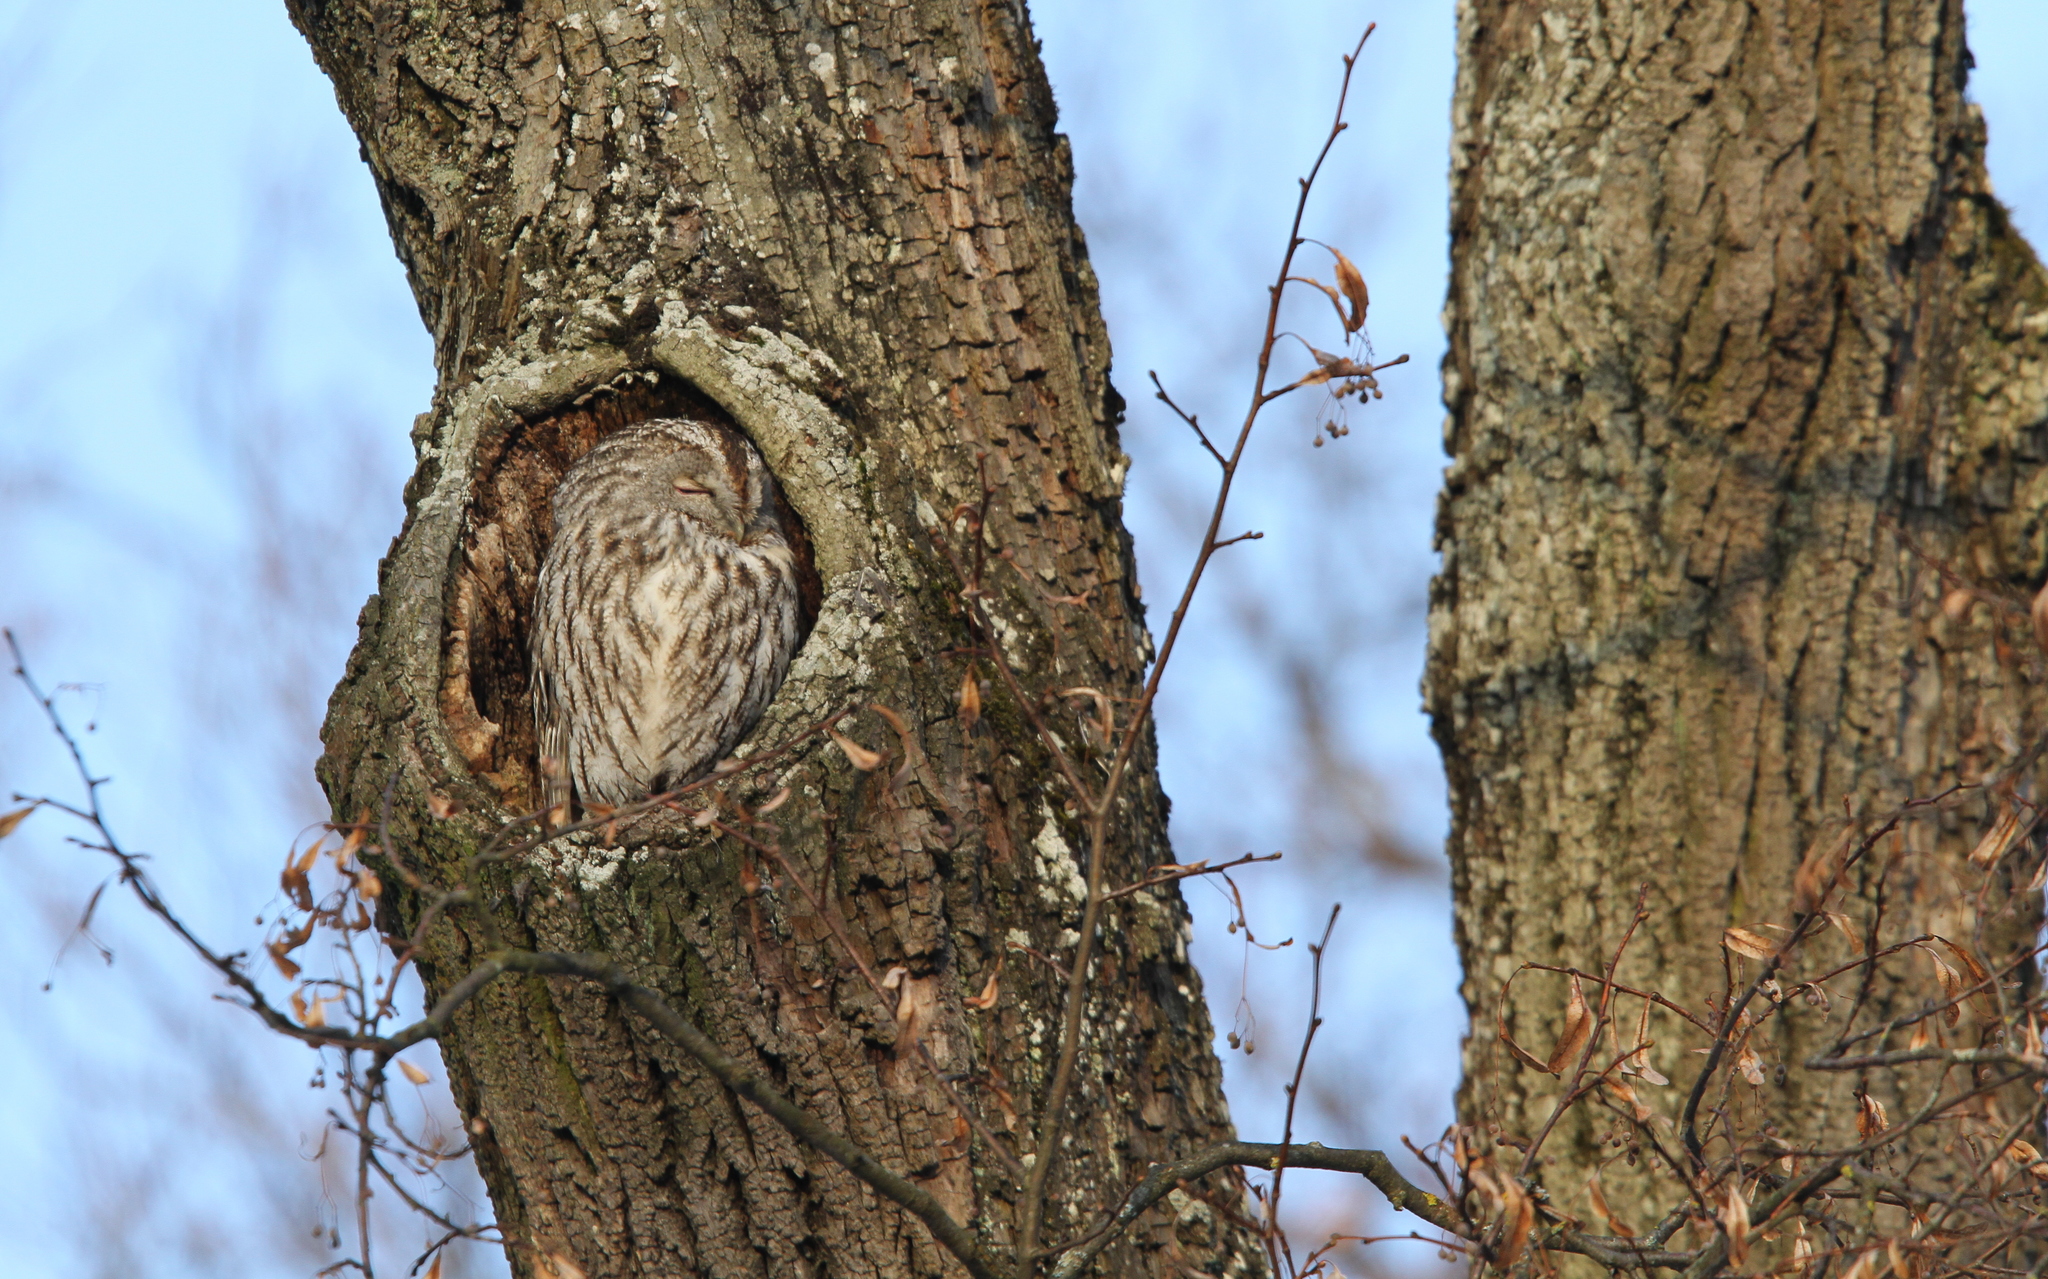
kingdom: Animalia
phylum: Chordata
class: Aves
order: Strigiformes
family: Strigidae
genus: Strix
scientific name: Strix aluco
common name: Tawny owl
